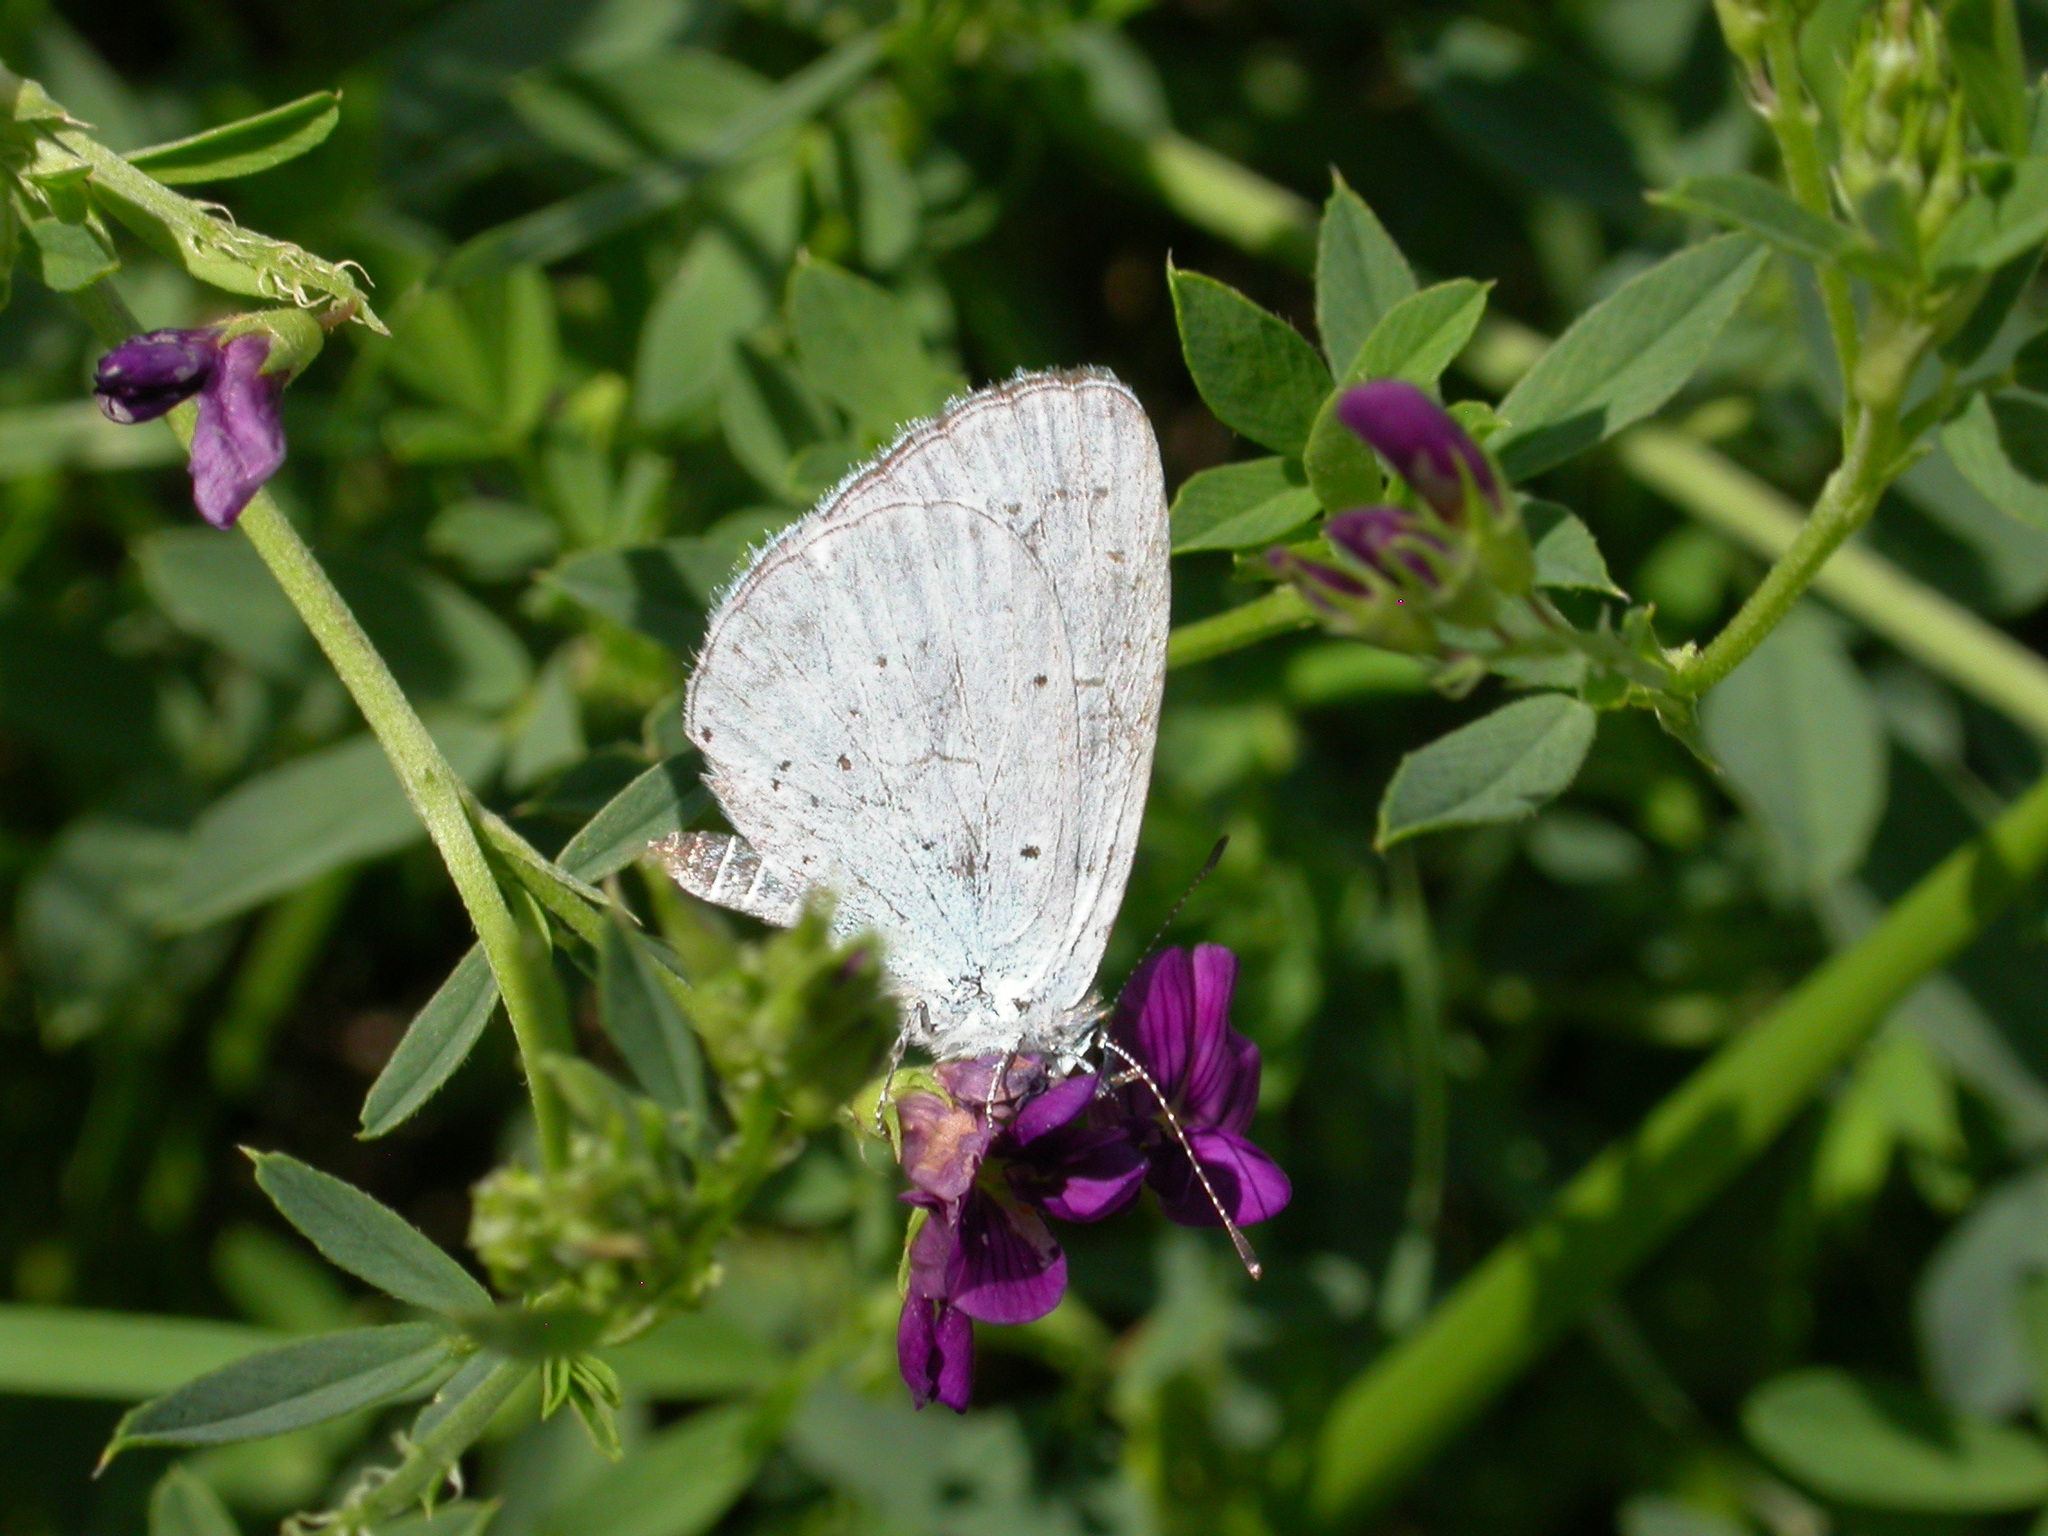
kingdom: Animalia
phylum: Arthropoda
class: Insecta
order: Lepidoptera
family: Lycaenidae
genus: Celastrina
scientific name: Celastrina argiolus
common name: Holly blue
